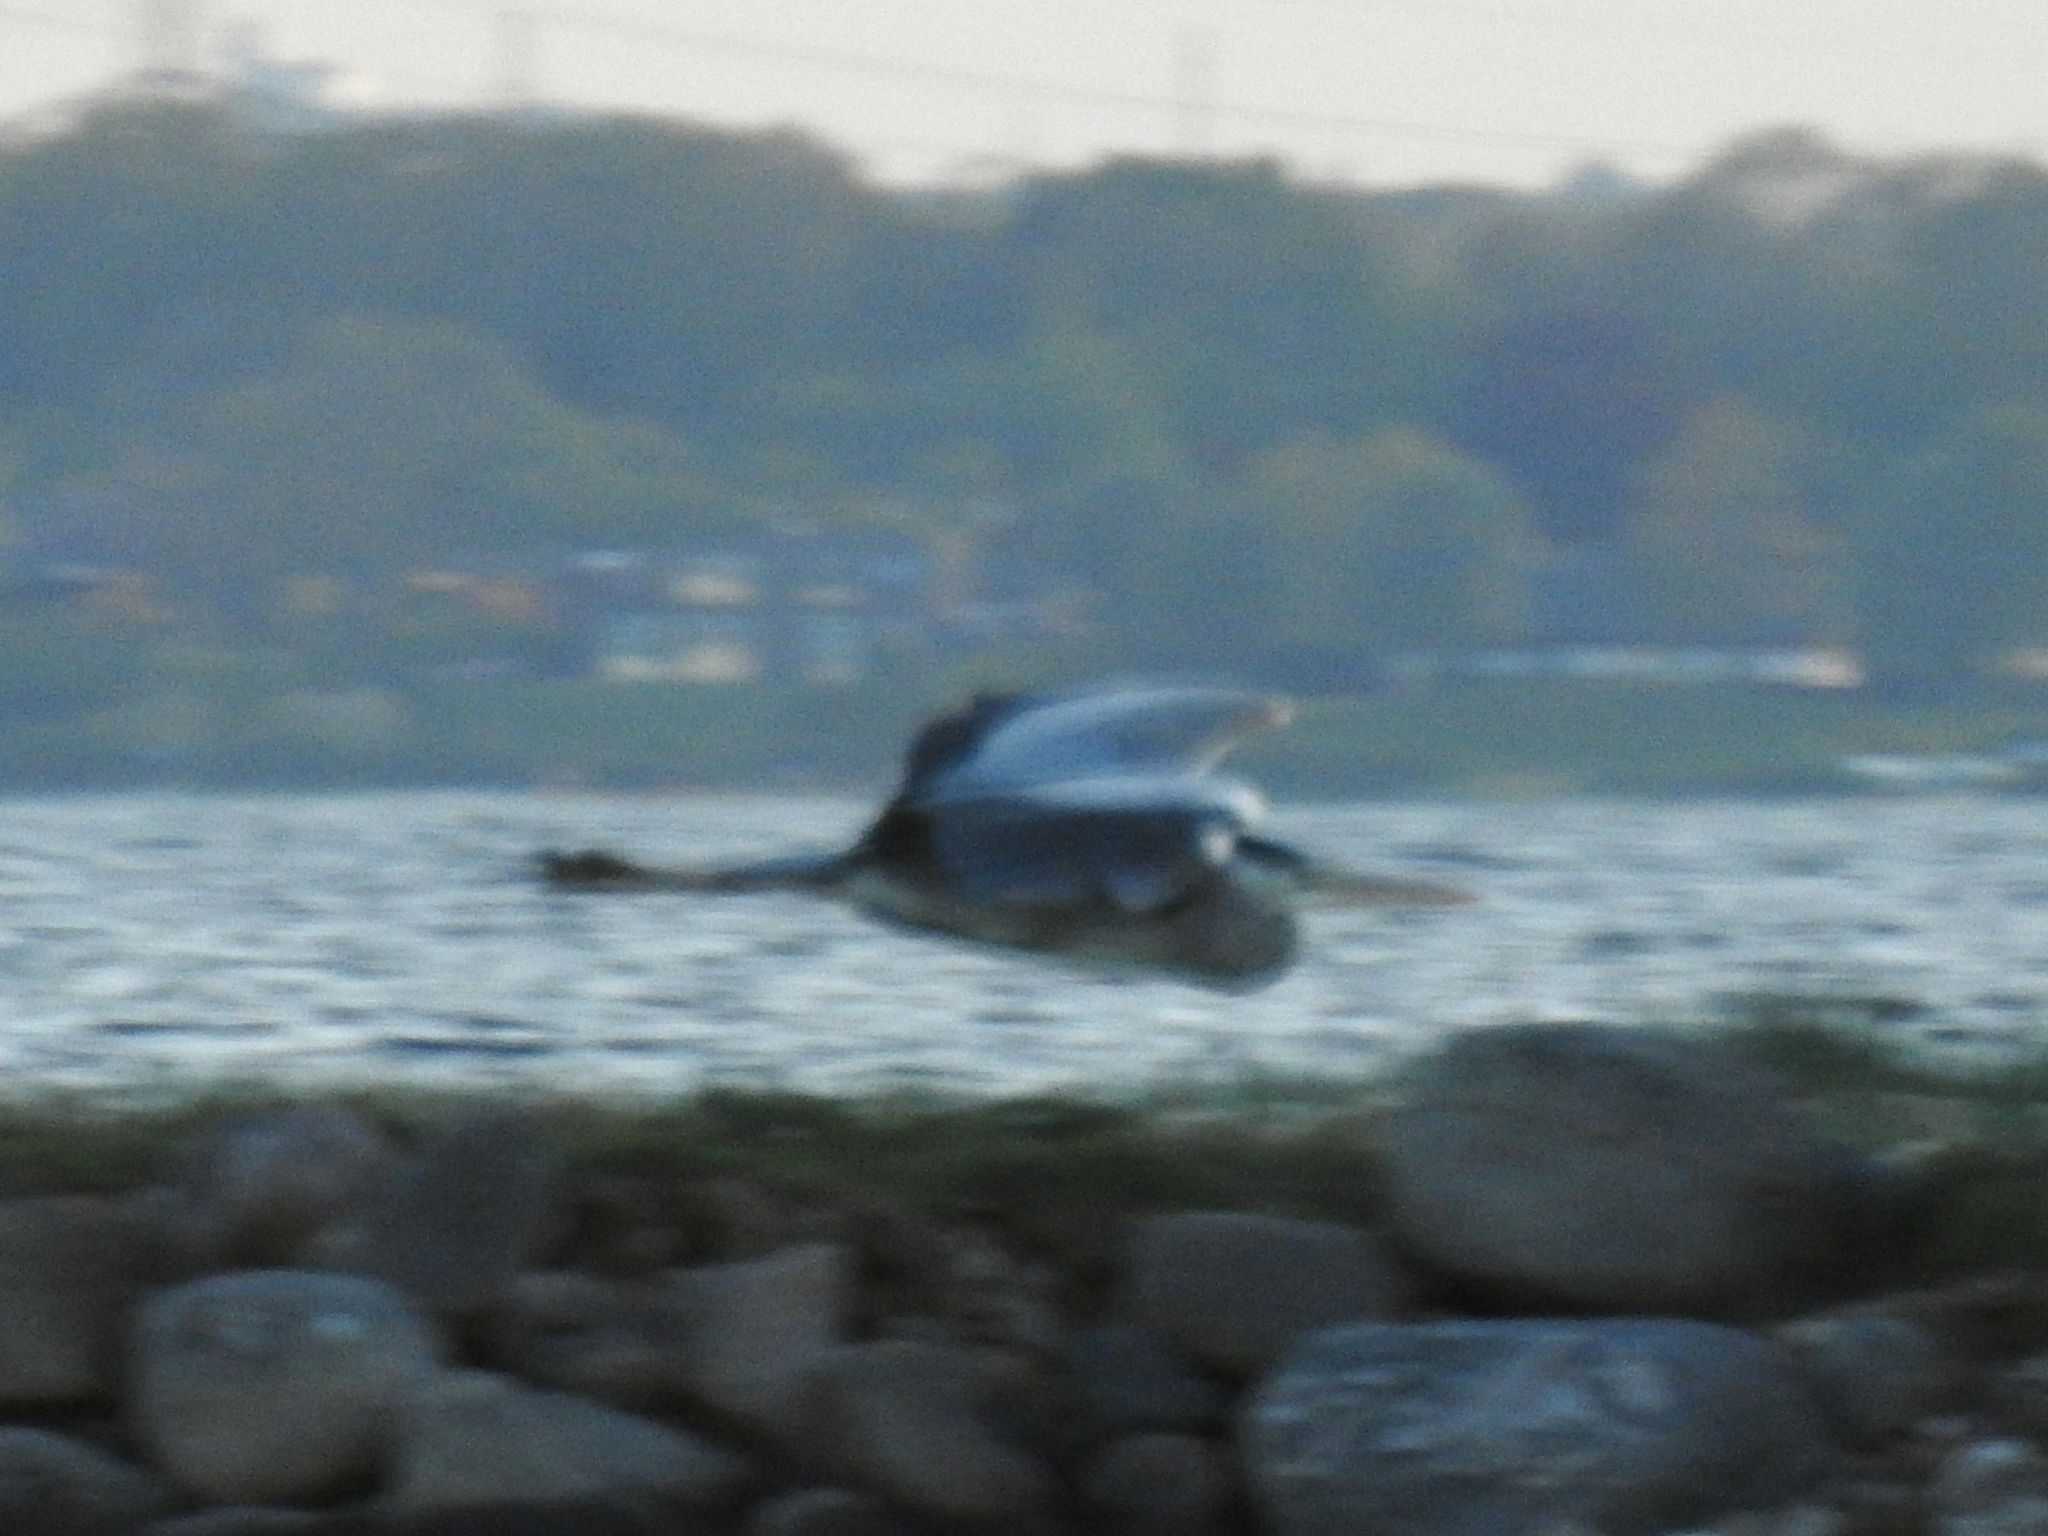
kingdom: Animalia
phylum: Chordata
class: Aves
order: Pelecaniformes
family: Ardeidae
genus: Ardea
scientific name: Ardea cinerea
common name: Grey heron
